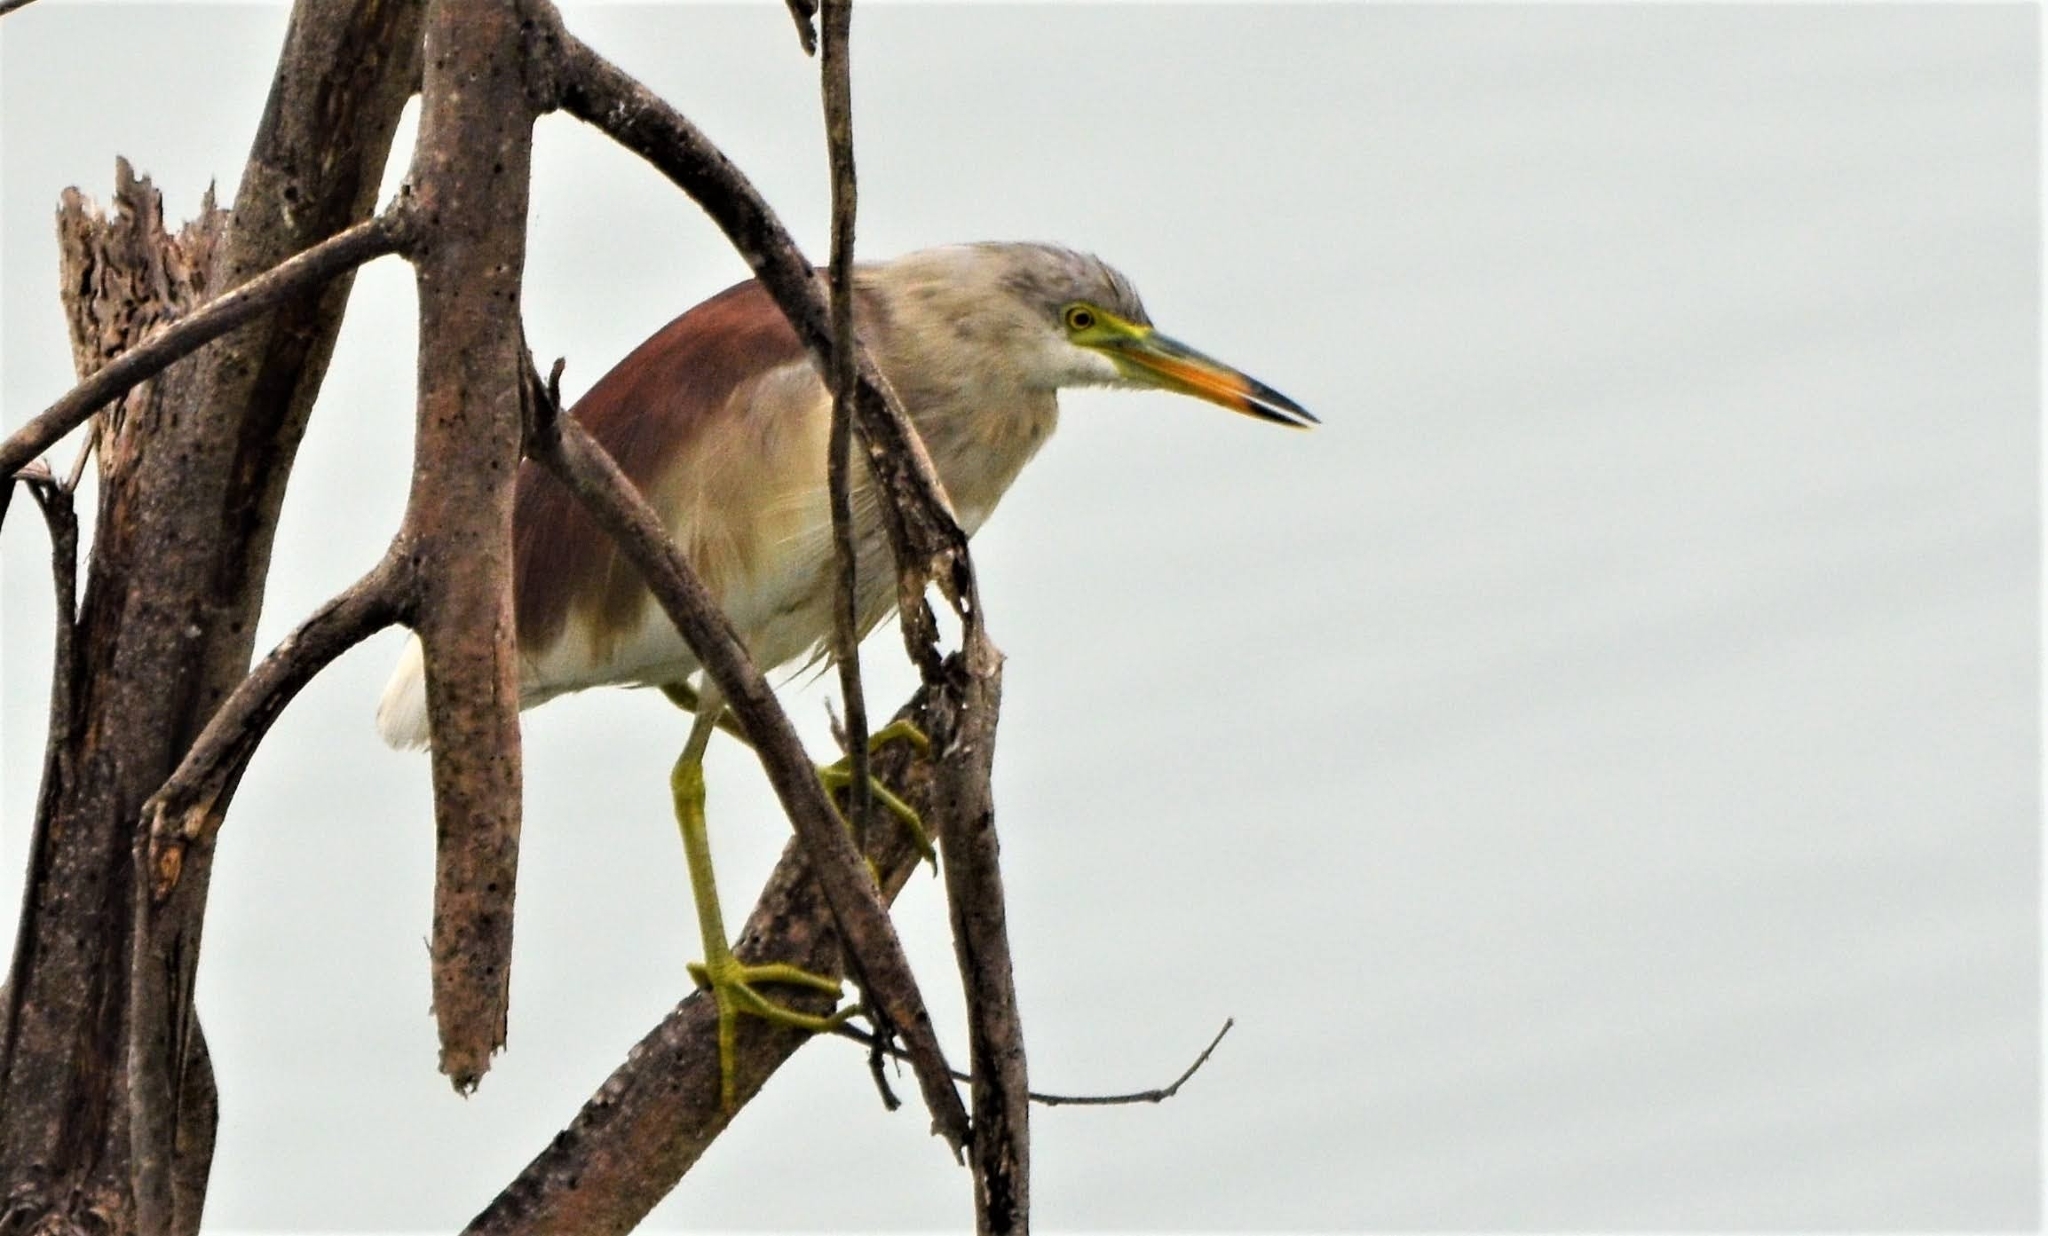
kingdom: Animalia
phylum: Chordata
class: Aves
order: Pelecaniformes
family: Ardeidae
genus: Ardeola
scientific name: Ardeola grayii
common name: Indian pond heron
